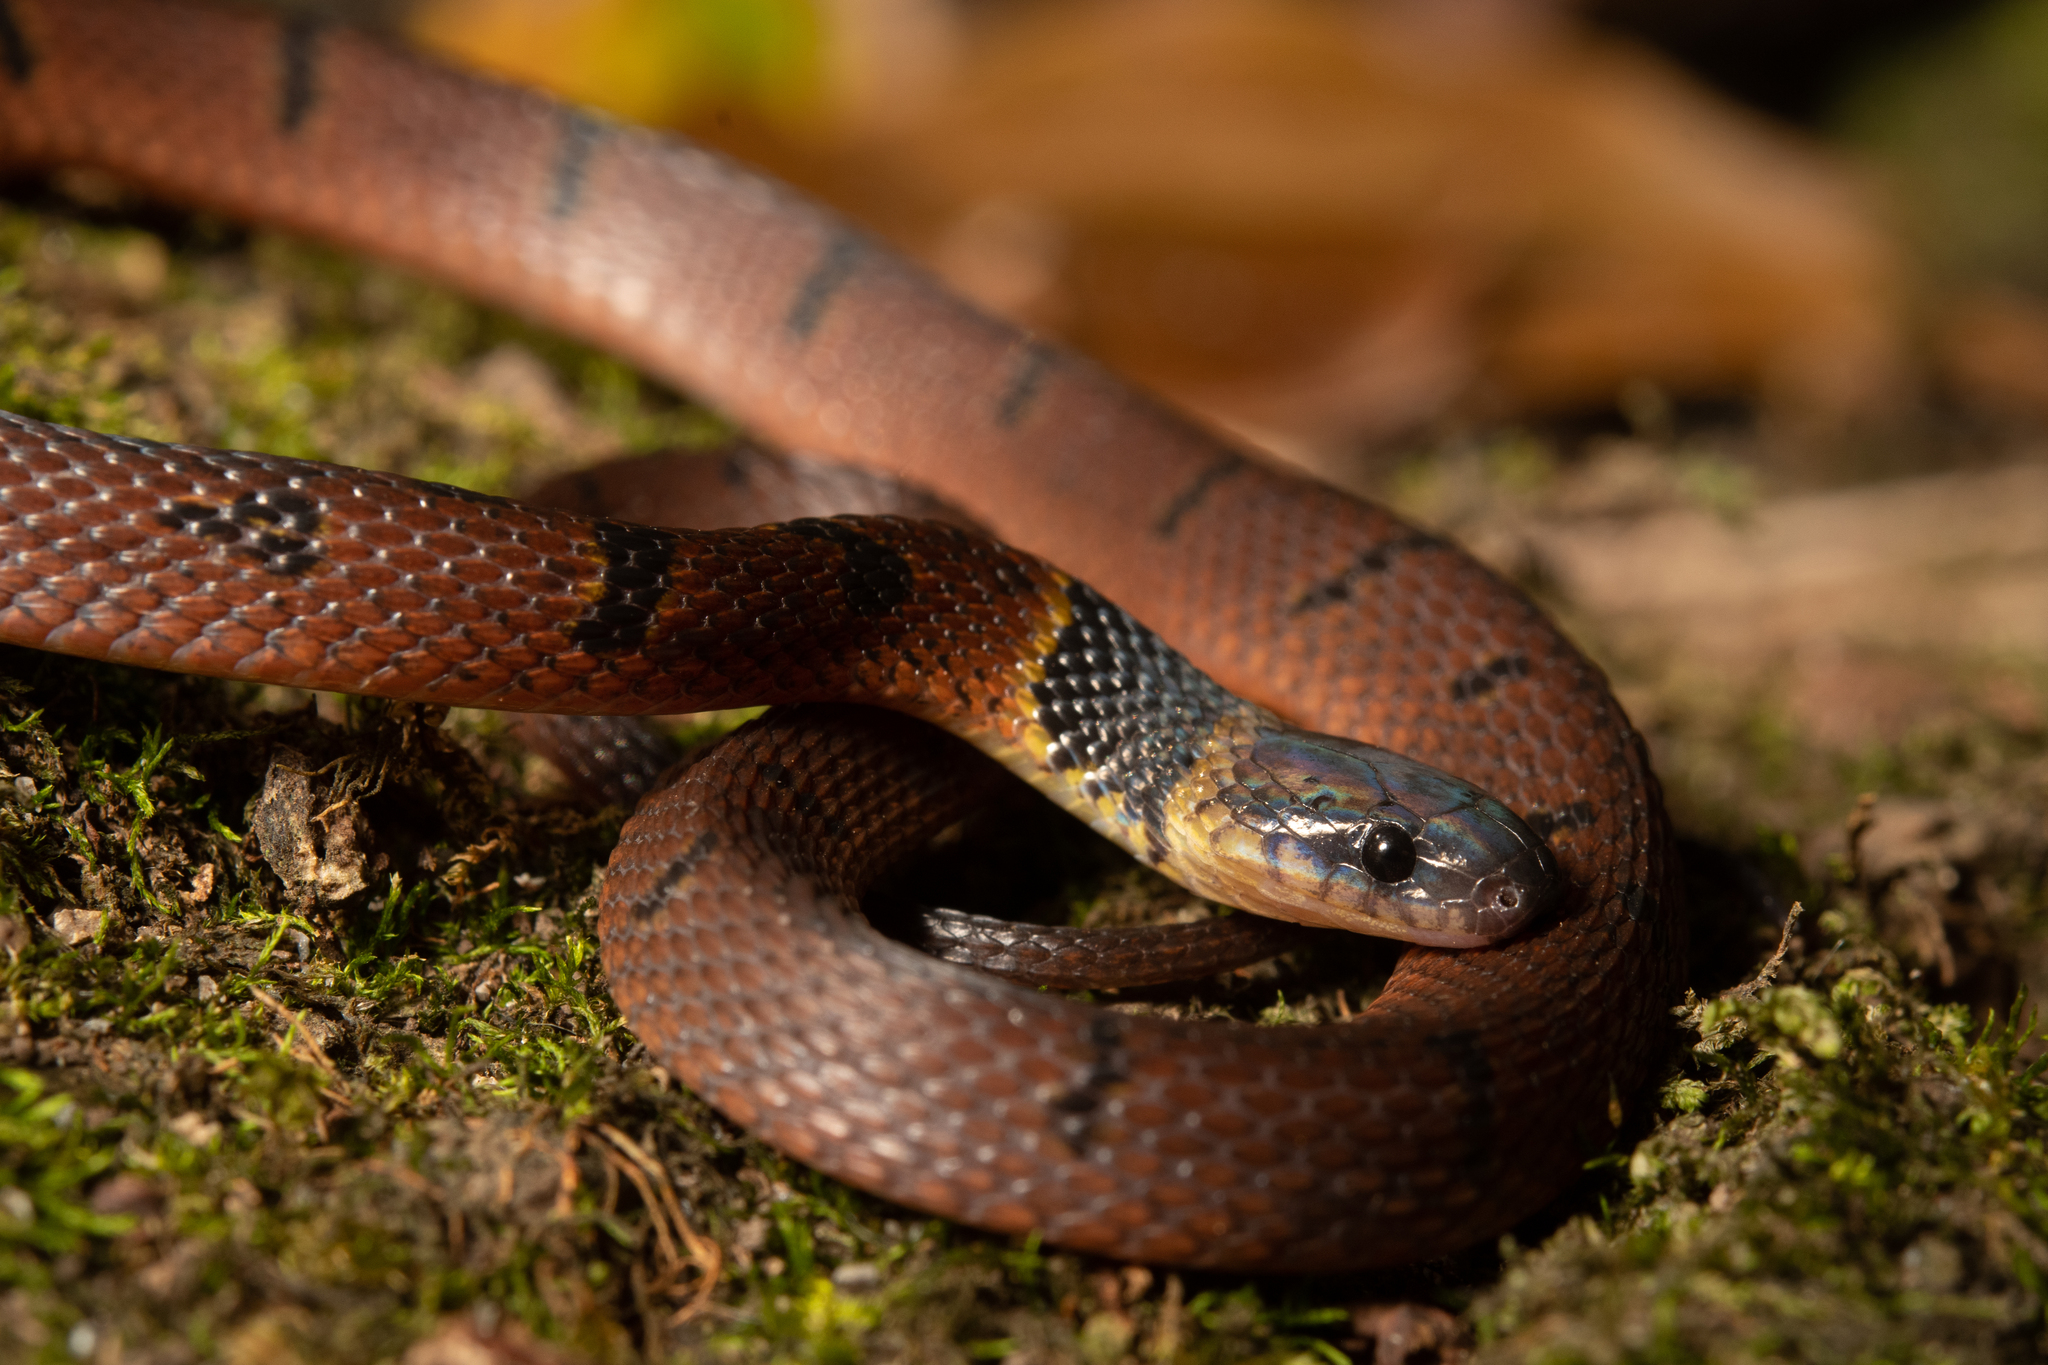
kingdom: Animalia
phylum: Chordata
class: Squamata
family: Colubridae
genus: Ninia
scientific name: Ninia sebae
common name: Redback coffee snake
